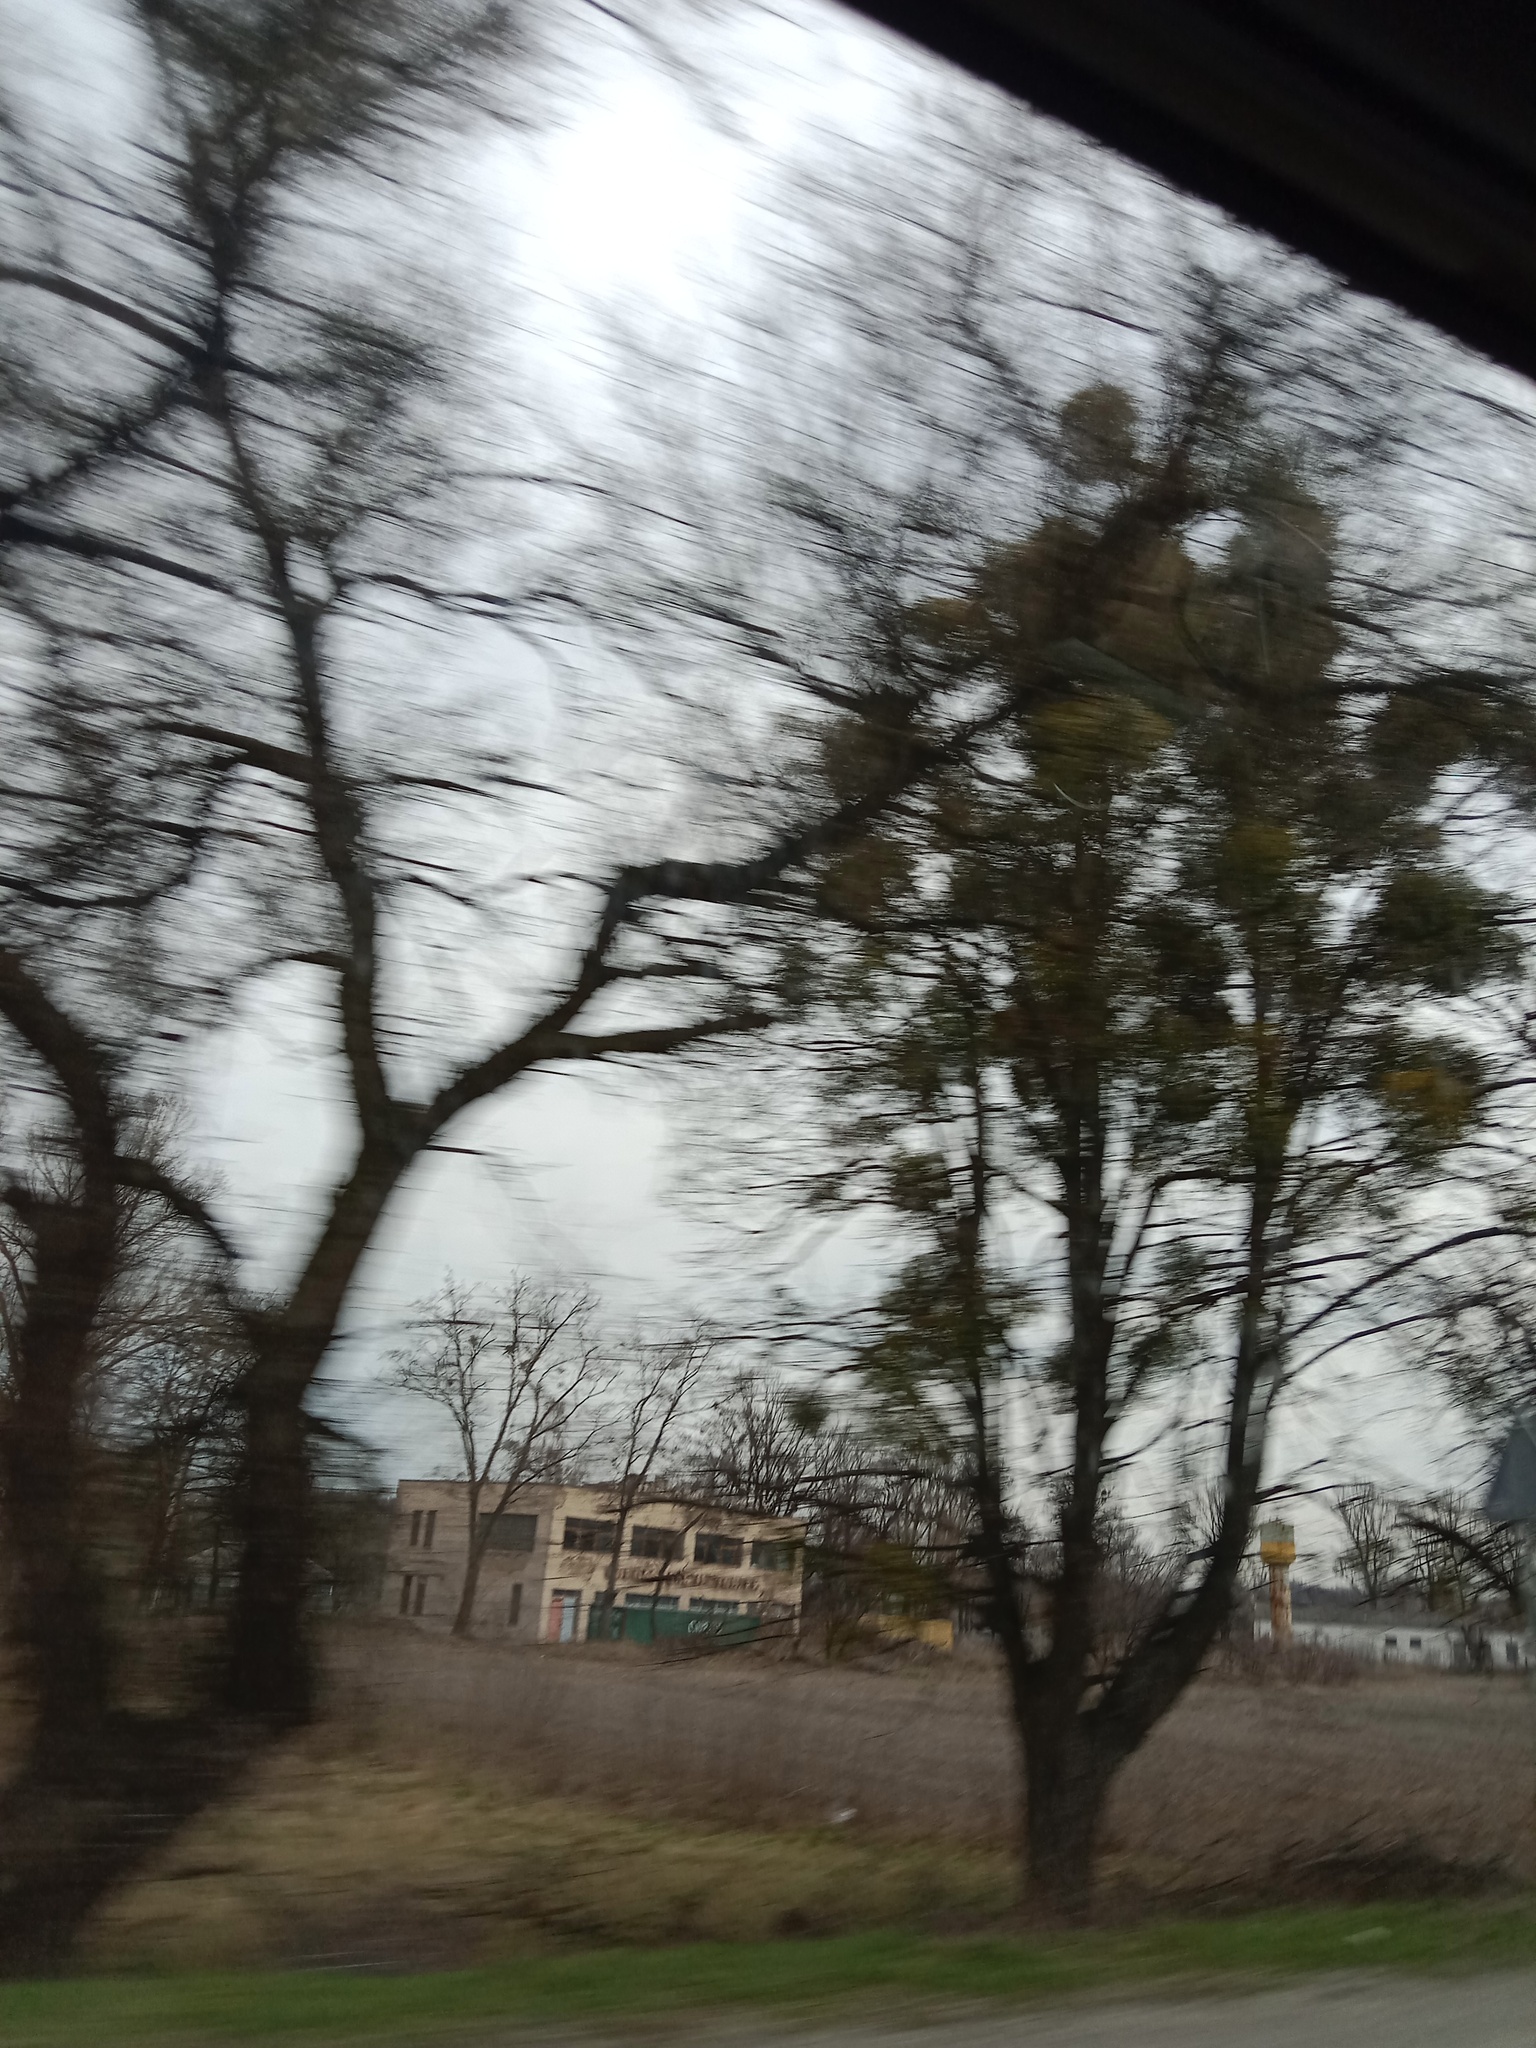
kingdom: Plantae
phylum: Tracheophyta
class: Magnoliopsida
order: Santalales
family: Viscaceae
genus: Viscum
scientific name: Viscum album
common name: Mistletoe
